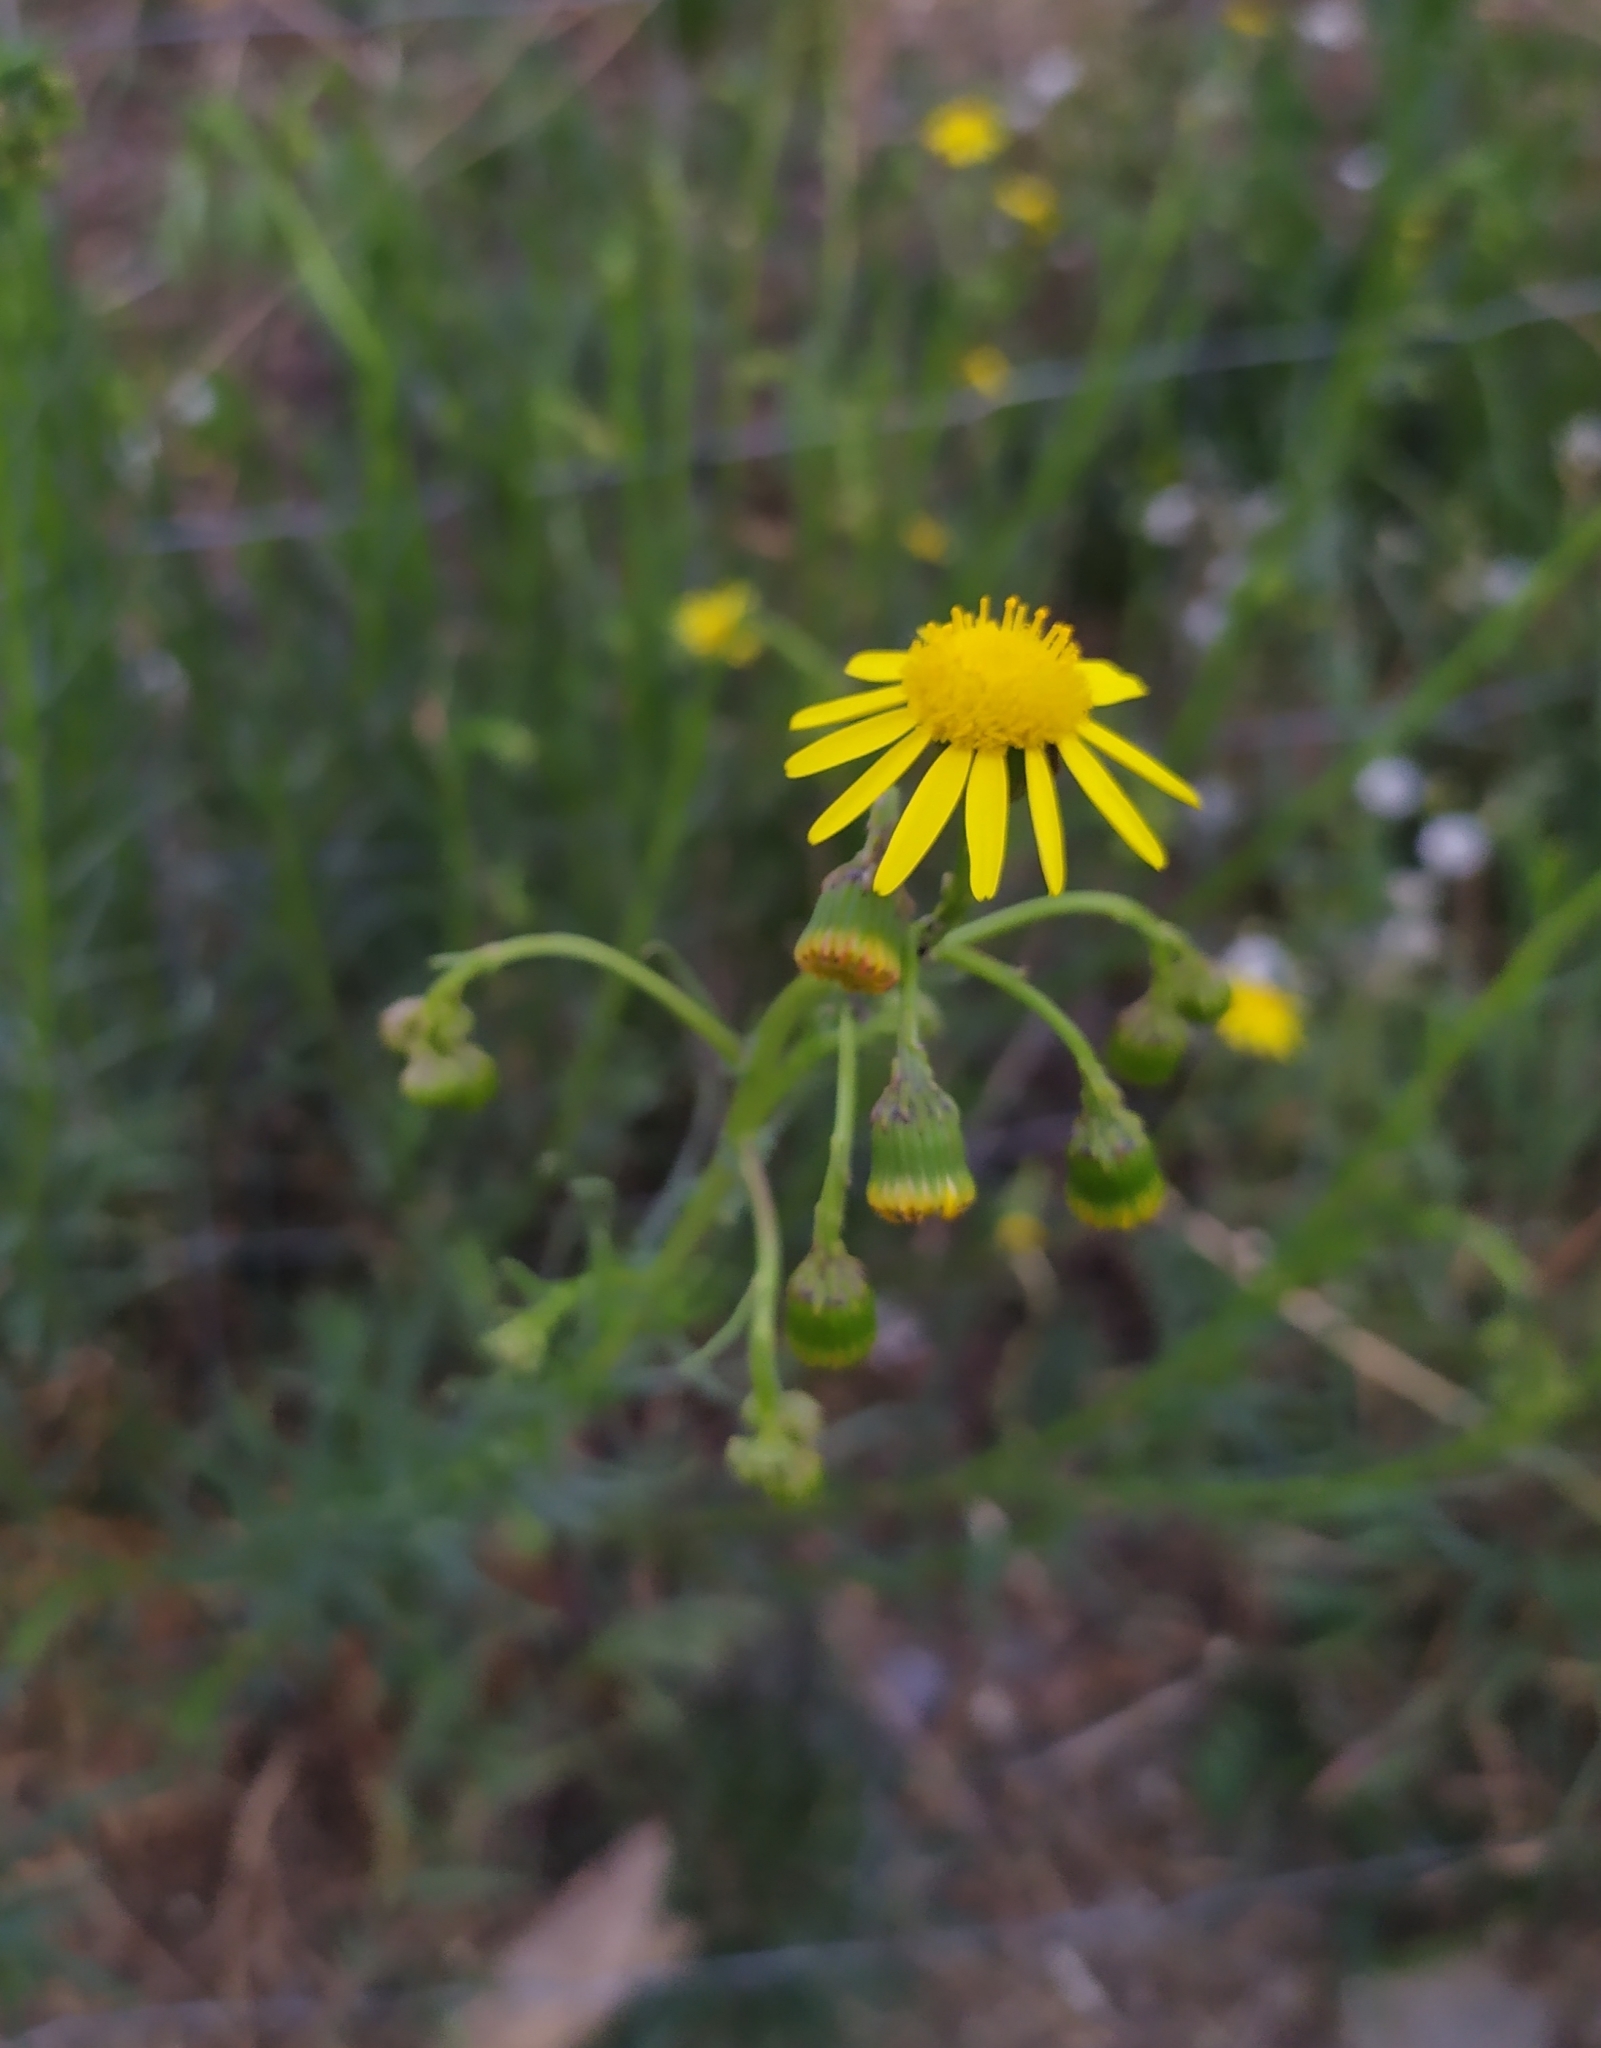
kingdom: Plantae
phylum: Tracheophyta
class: Magnoliopsida
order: Asterales
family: Asteraceae
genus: Senecio
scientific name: Senecio inaequidens
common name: Narrow-leaved ragwort
